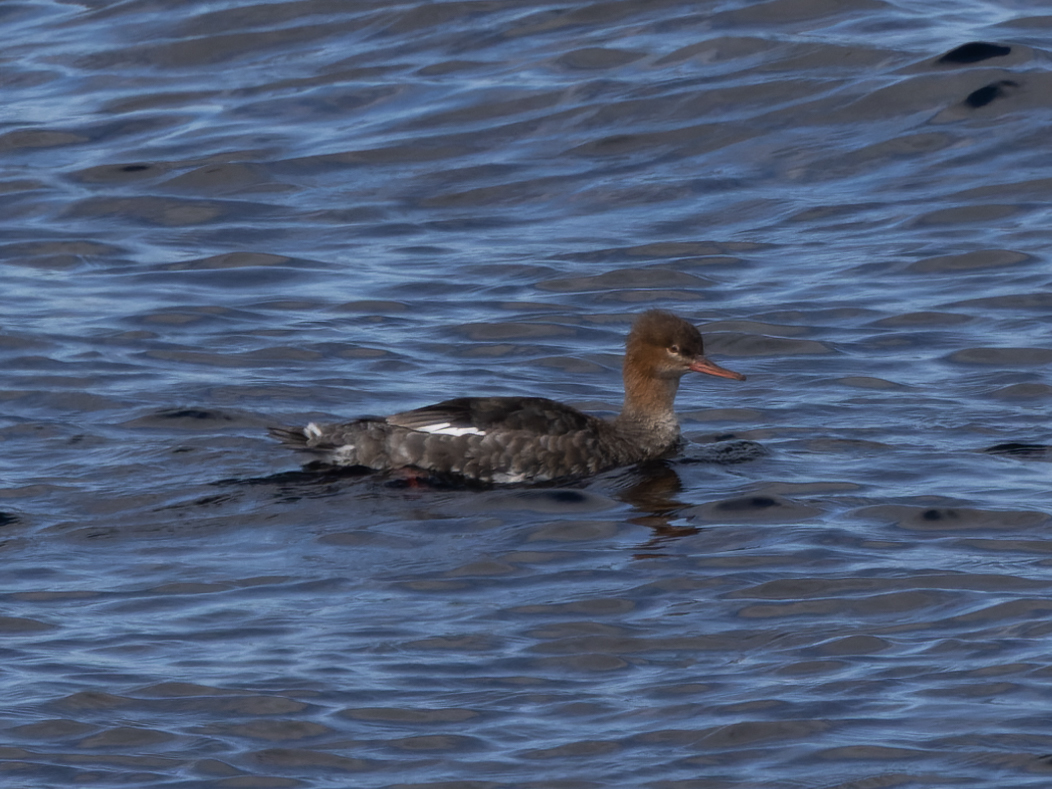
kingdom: Animalia
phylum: Chordata
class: Aves
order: Anseriformes
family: Anatidae
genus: Mergus
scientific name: Mergus serrator
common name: Red-breasted merganser
